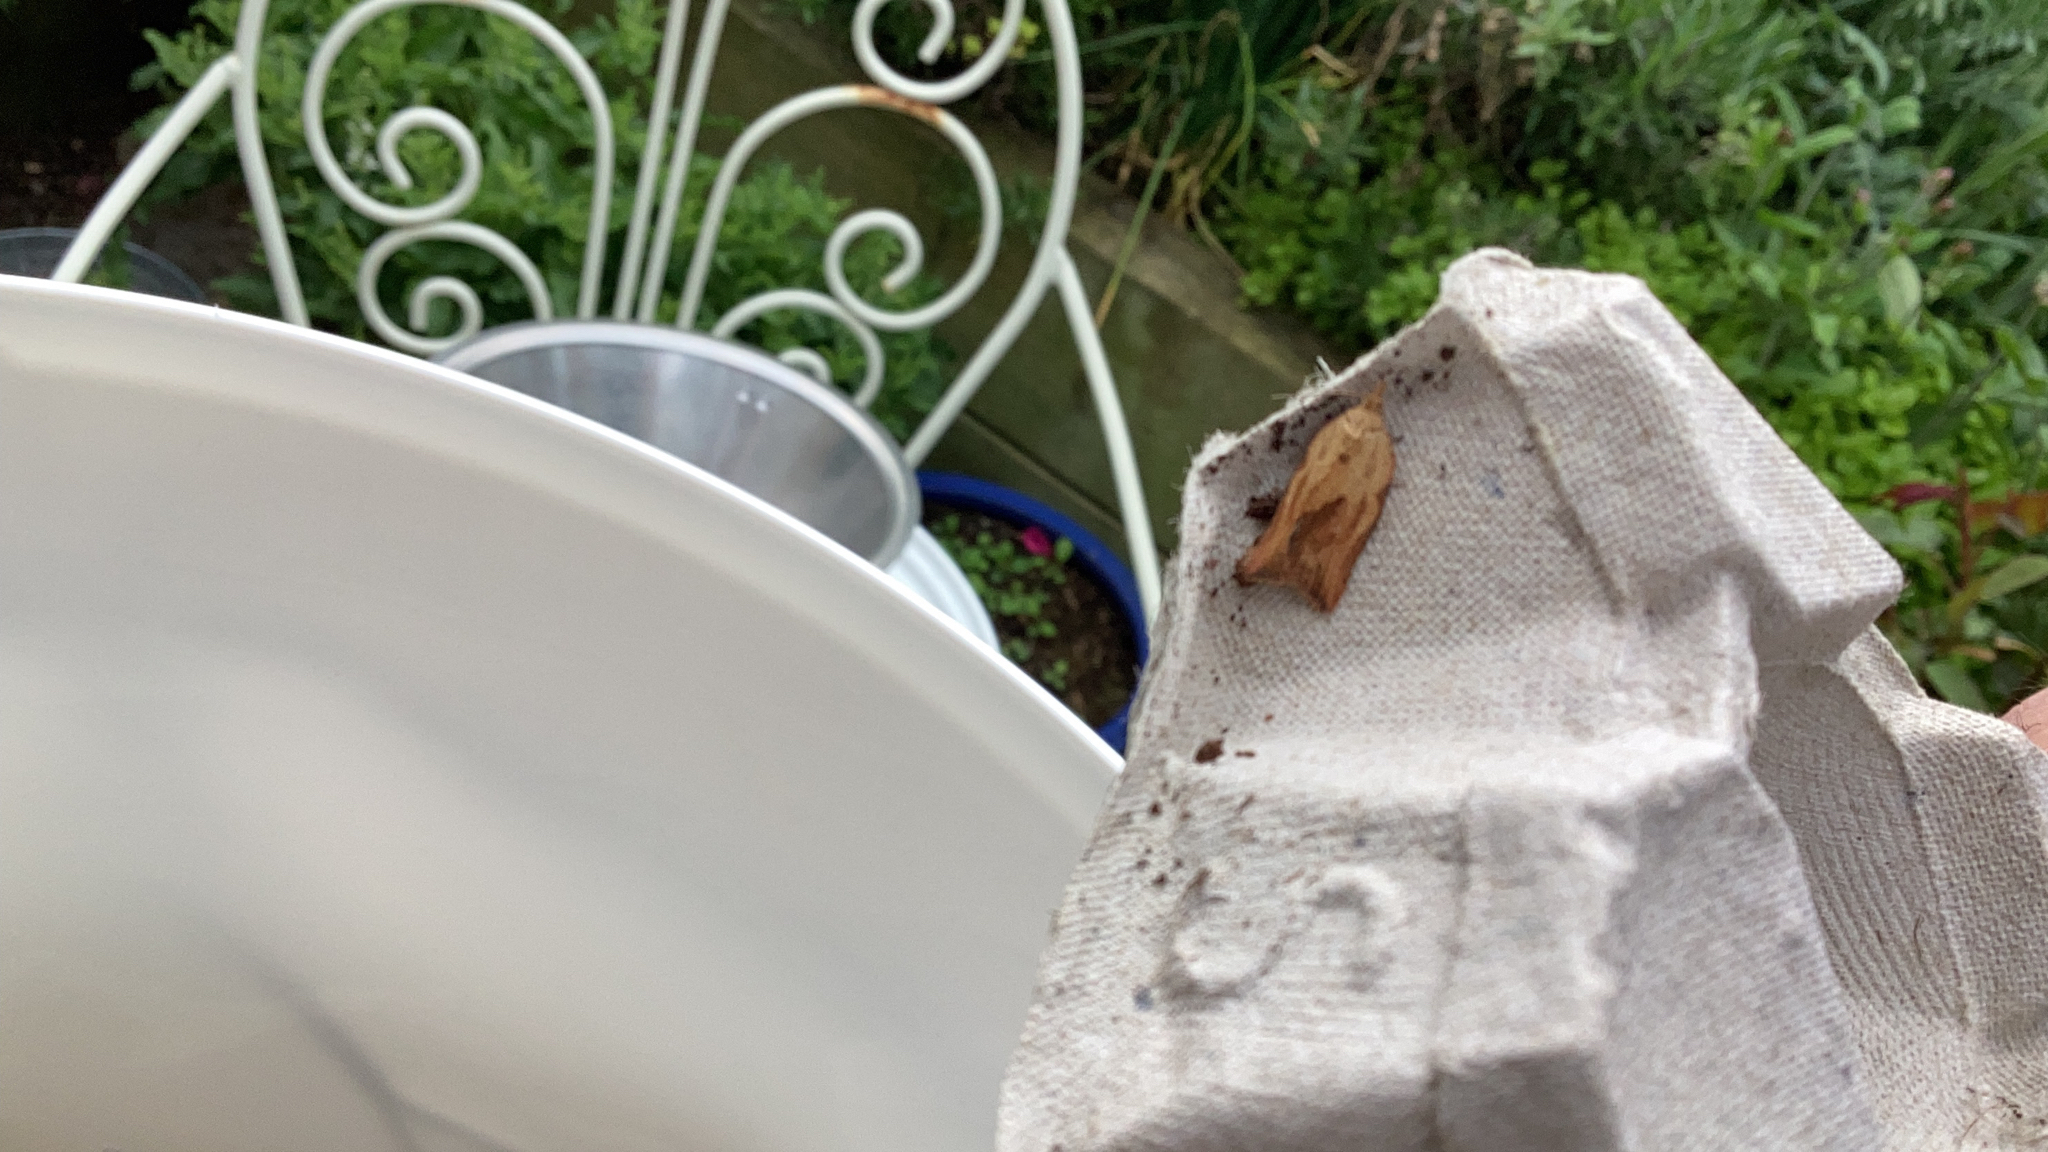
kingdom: Animalia
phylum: Arthropoda
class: Insecta
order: Lepidoptera
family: Tortricidae
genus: Epiphyas
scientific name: Epiphyas postvittana
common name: Light brown apple moth
